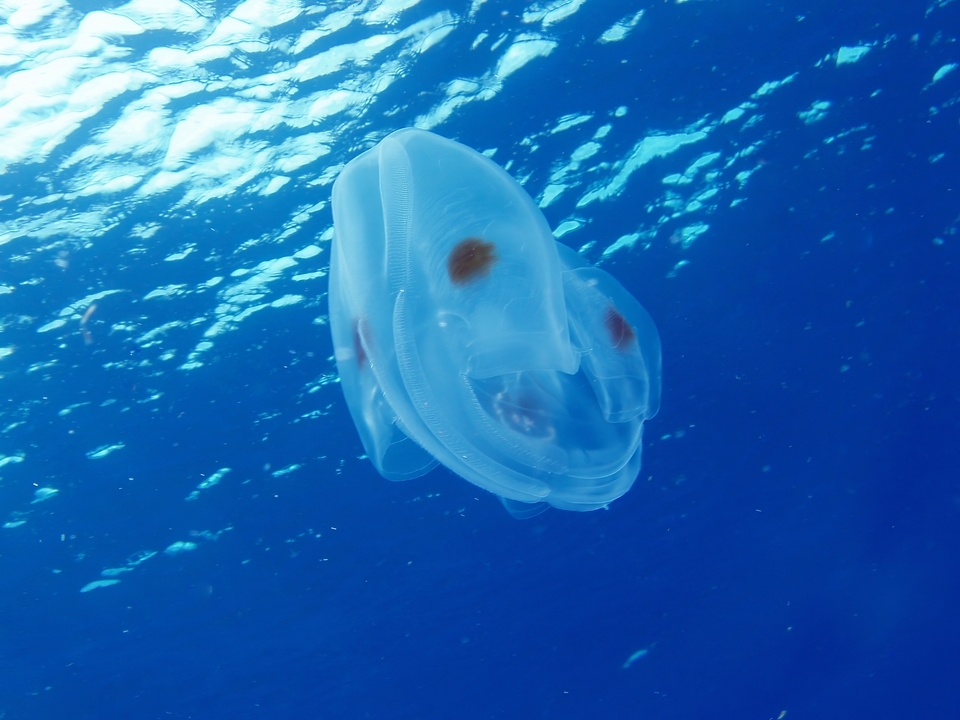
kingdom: Animalia
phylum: Ctenophora
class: Tentaculata
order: Lobata
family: Ocyropsidae
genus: Ocyropsis
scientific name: Ocyropsis maculata
